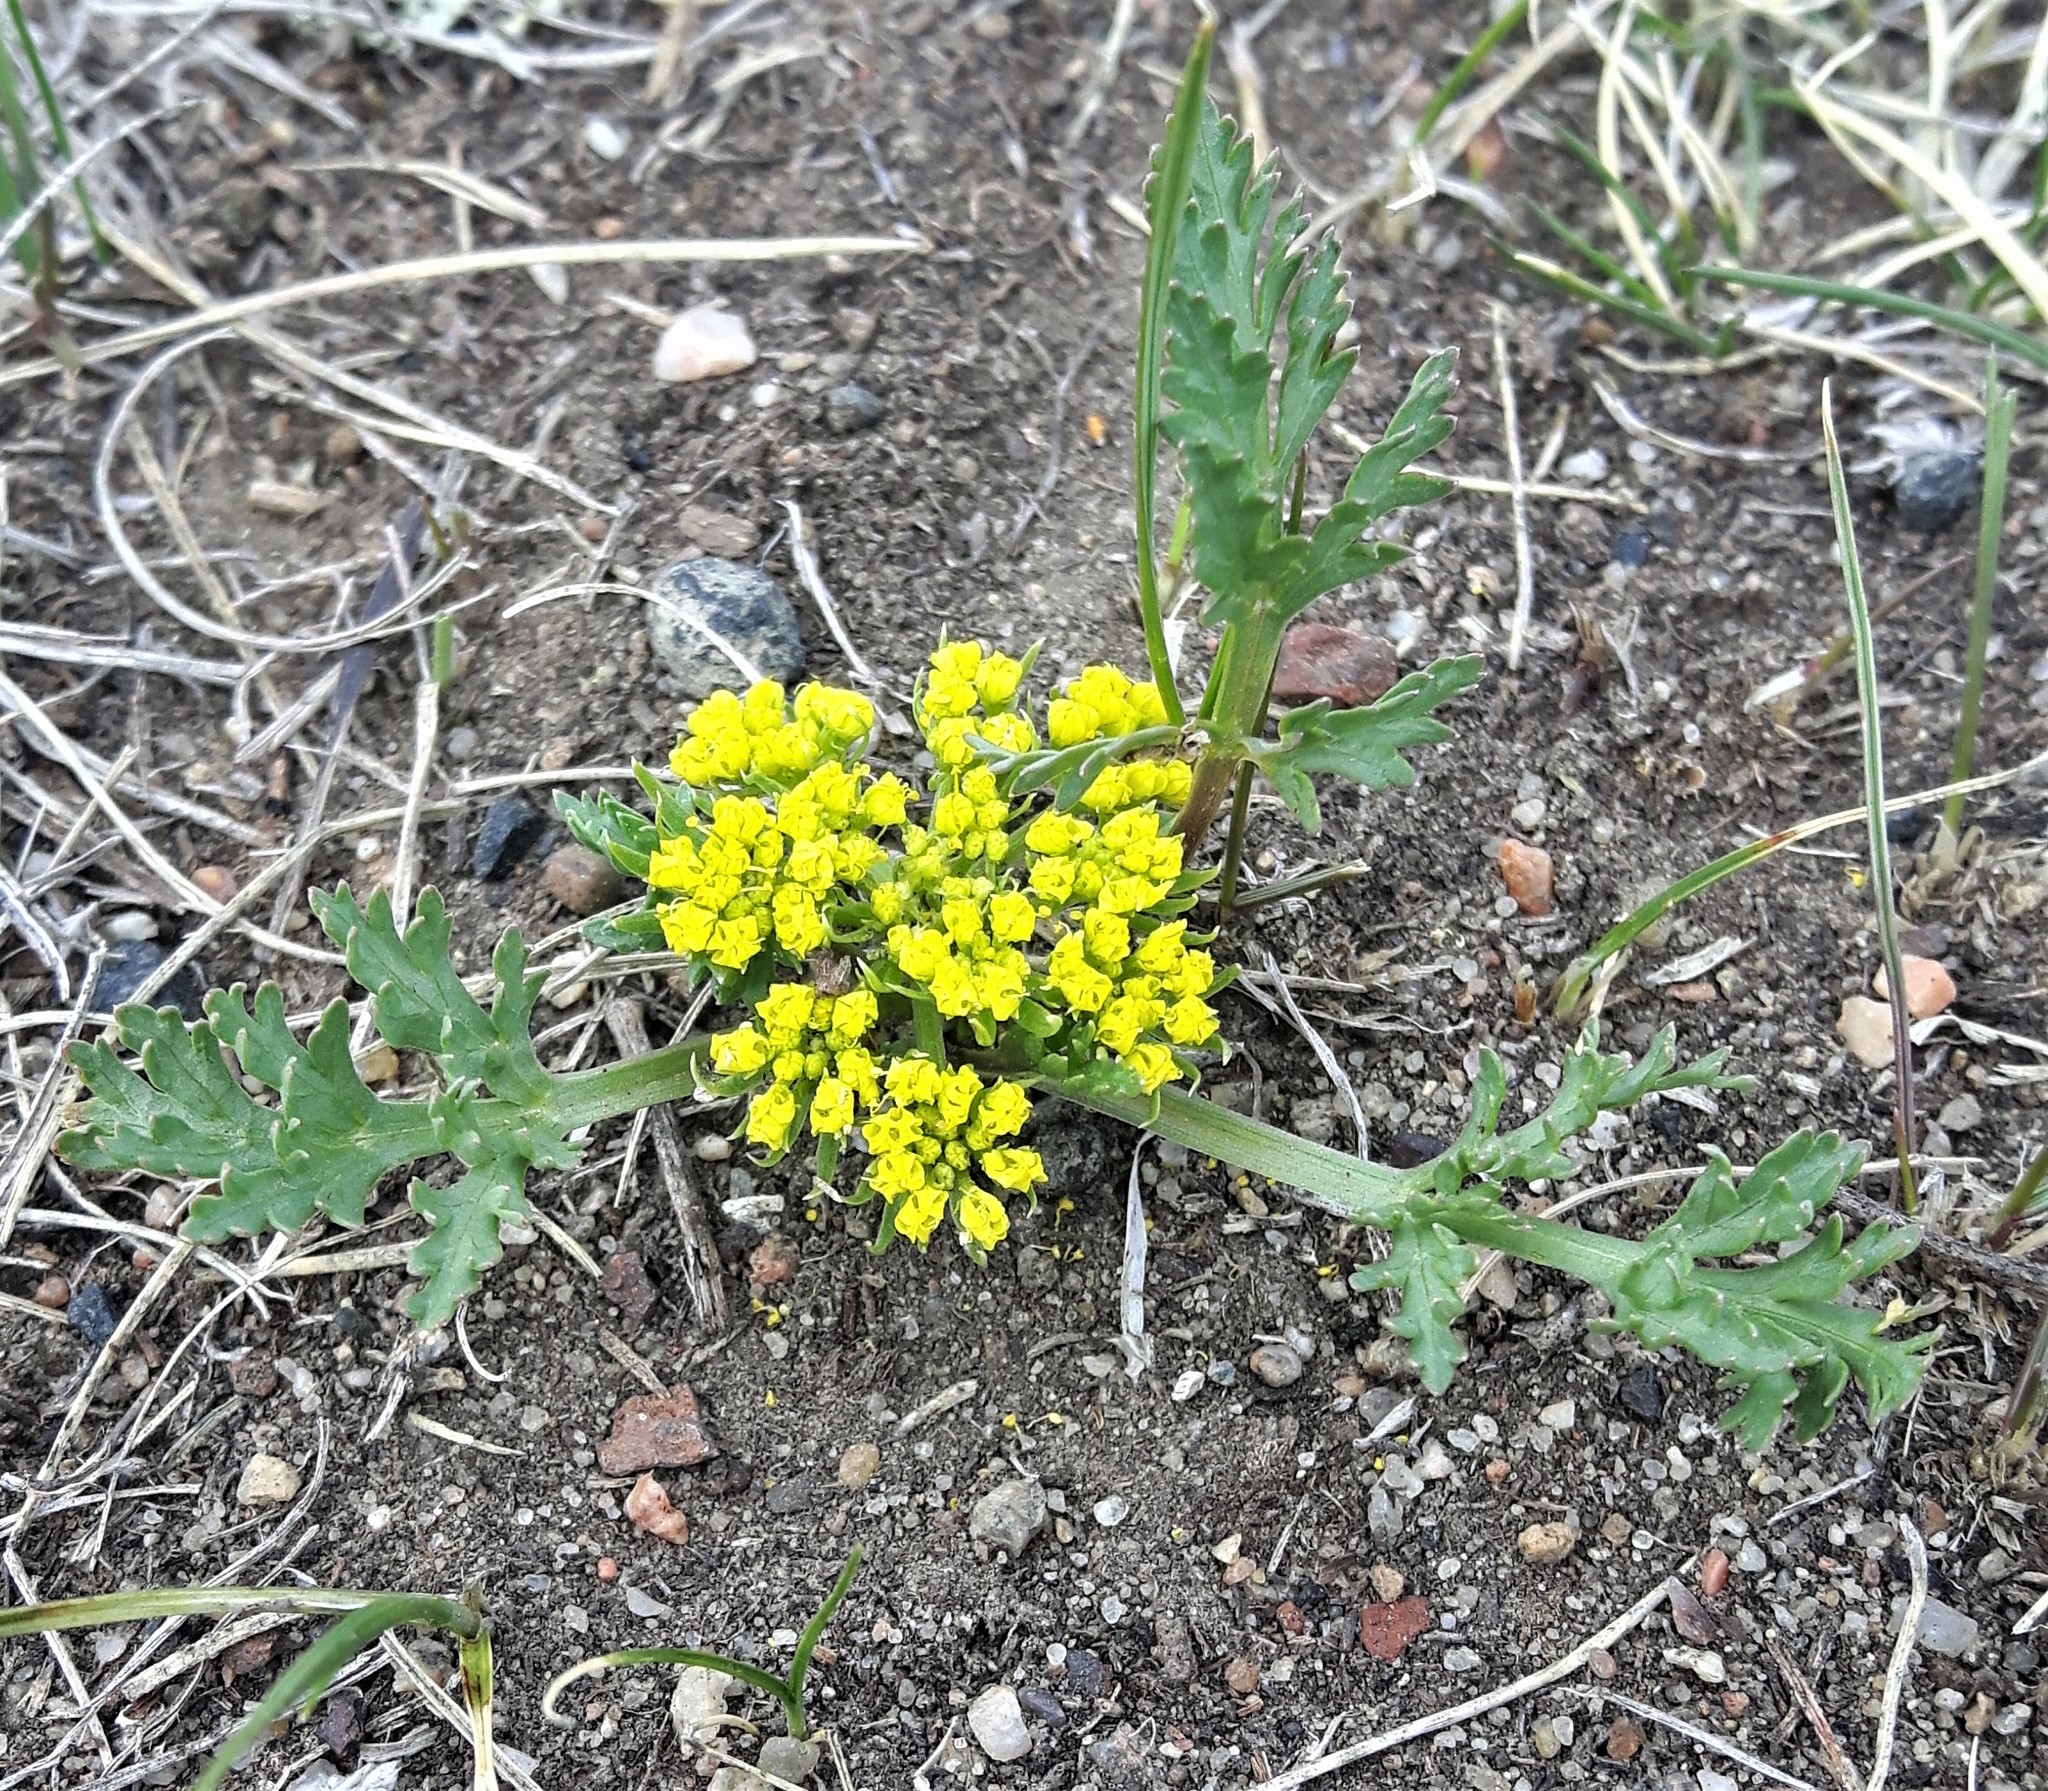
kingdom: Plantae
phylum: Tracheophyta
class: Magnoliopsida
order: Apiales
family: Apiaceae
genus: Musineon
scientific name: Musineon divaricatum
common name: Plains musineon
